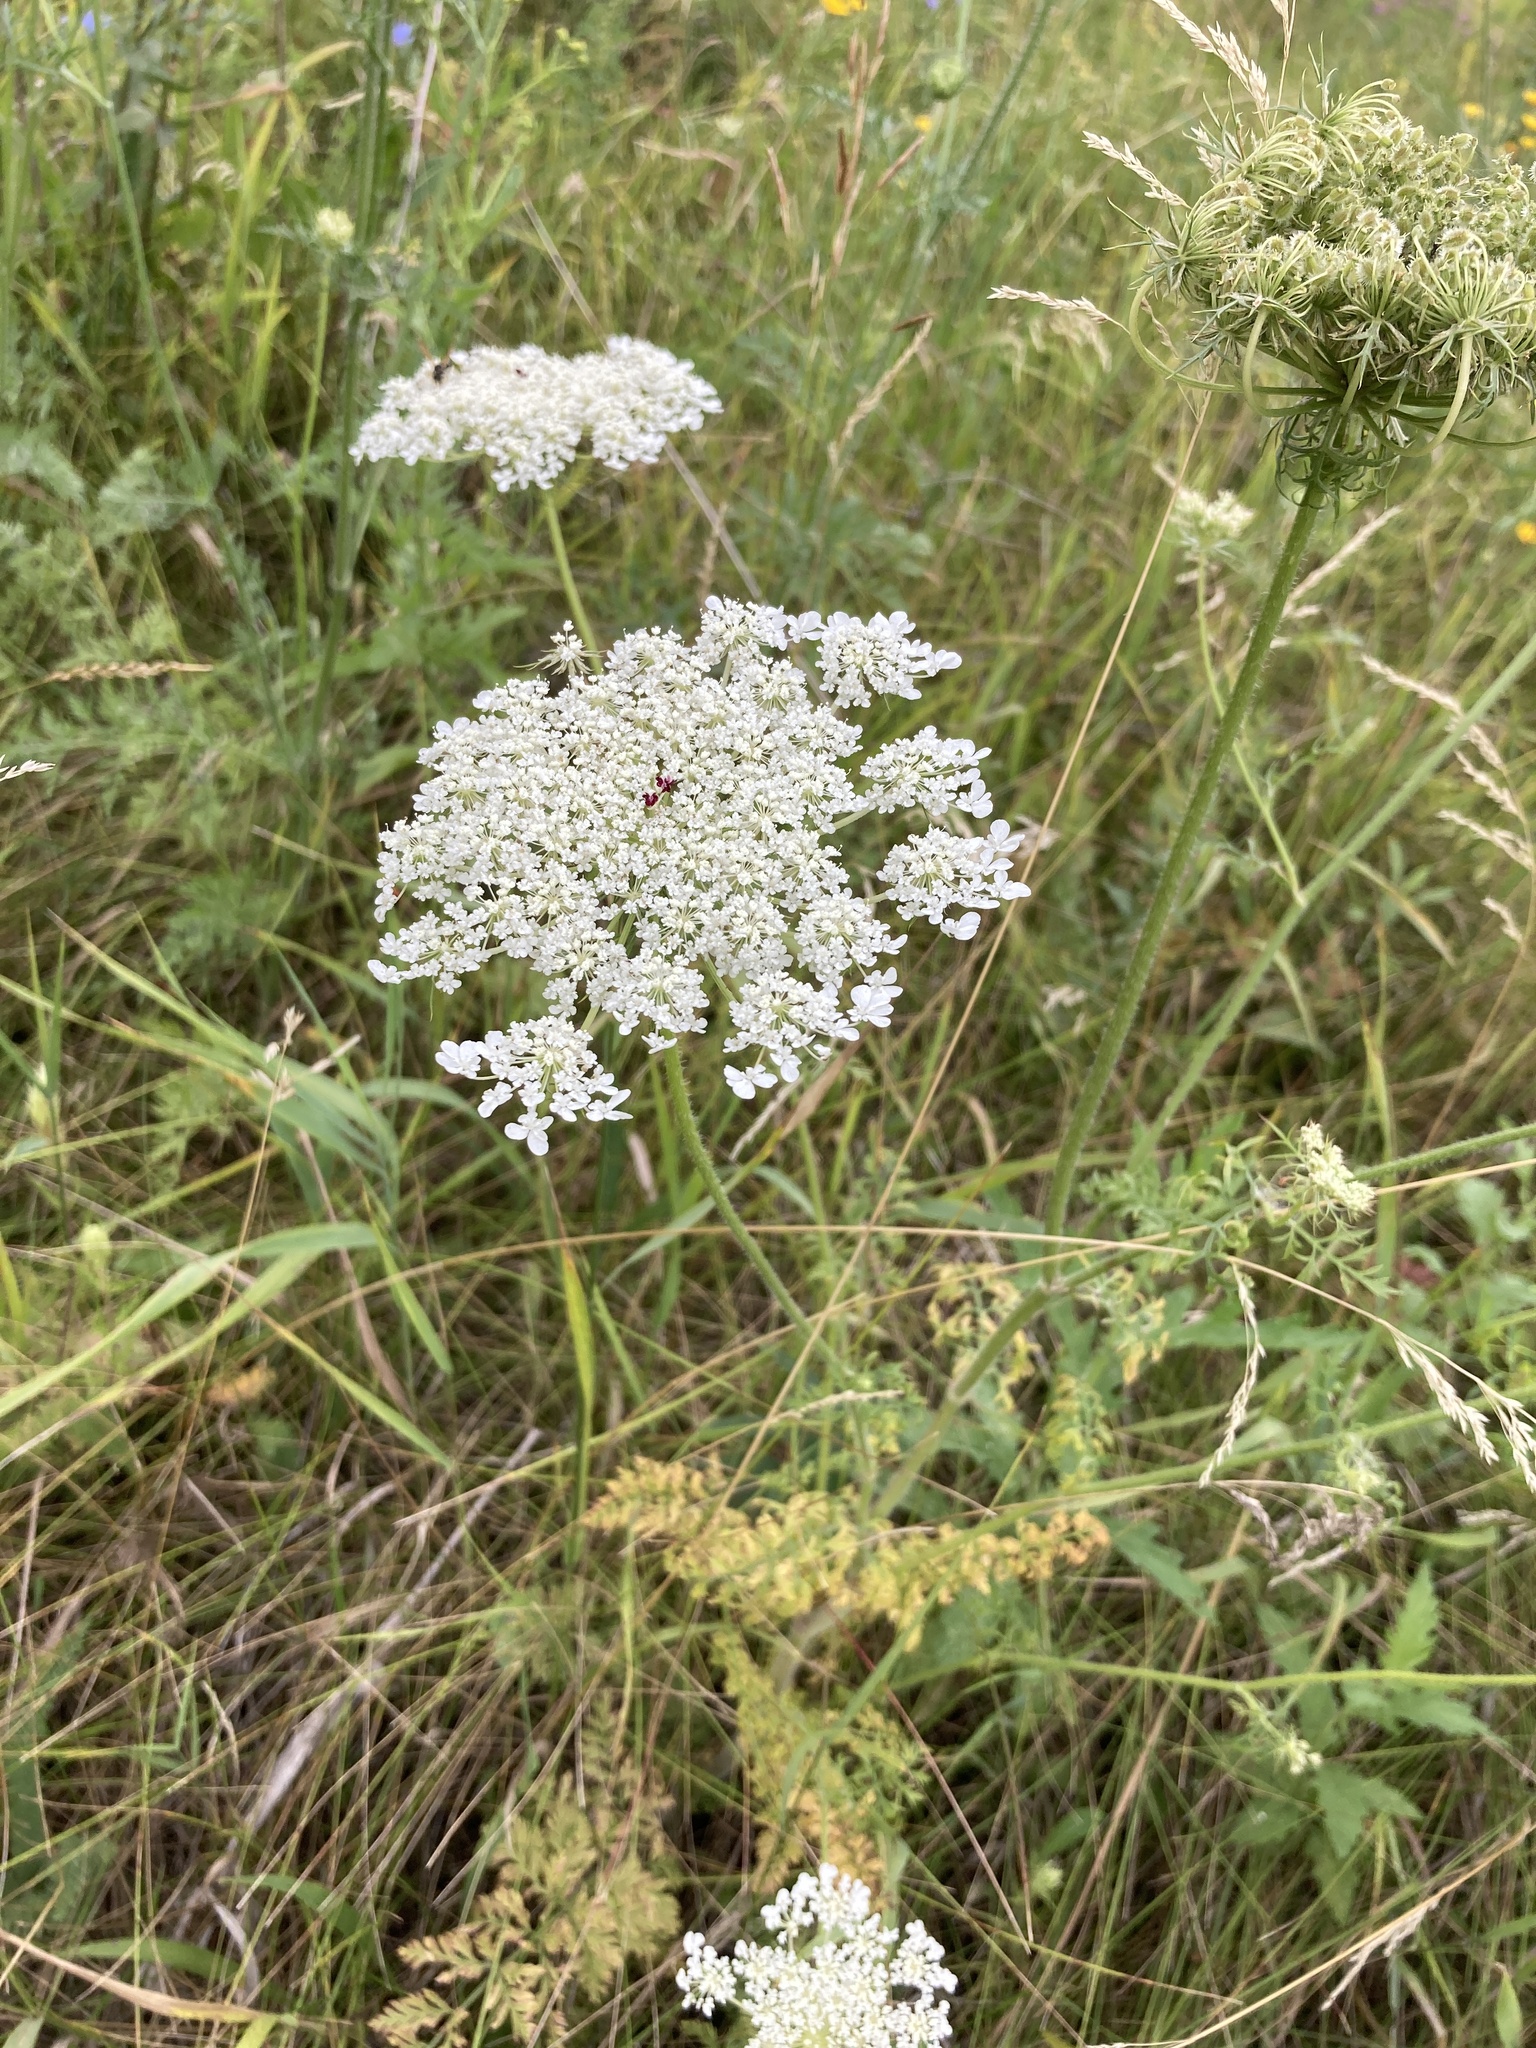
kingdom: Plantae
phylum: Tracheophyta
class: Magnoliopsida
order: Apiales
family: Apiaceae
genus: Daucus
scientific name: Daucus carota
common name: Wild carrot
